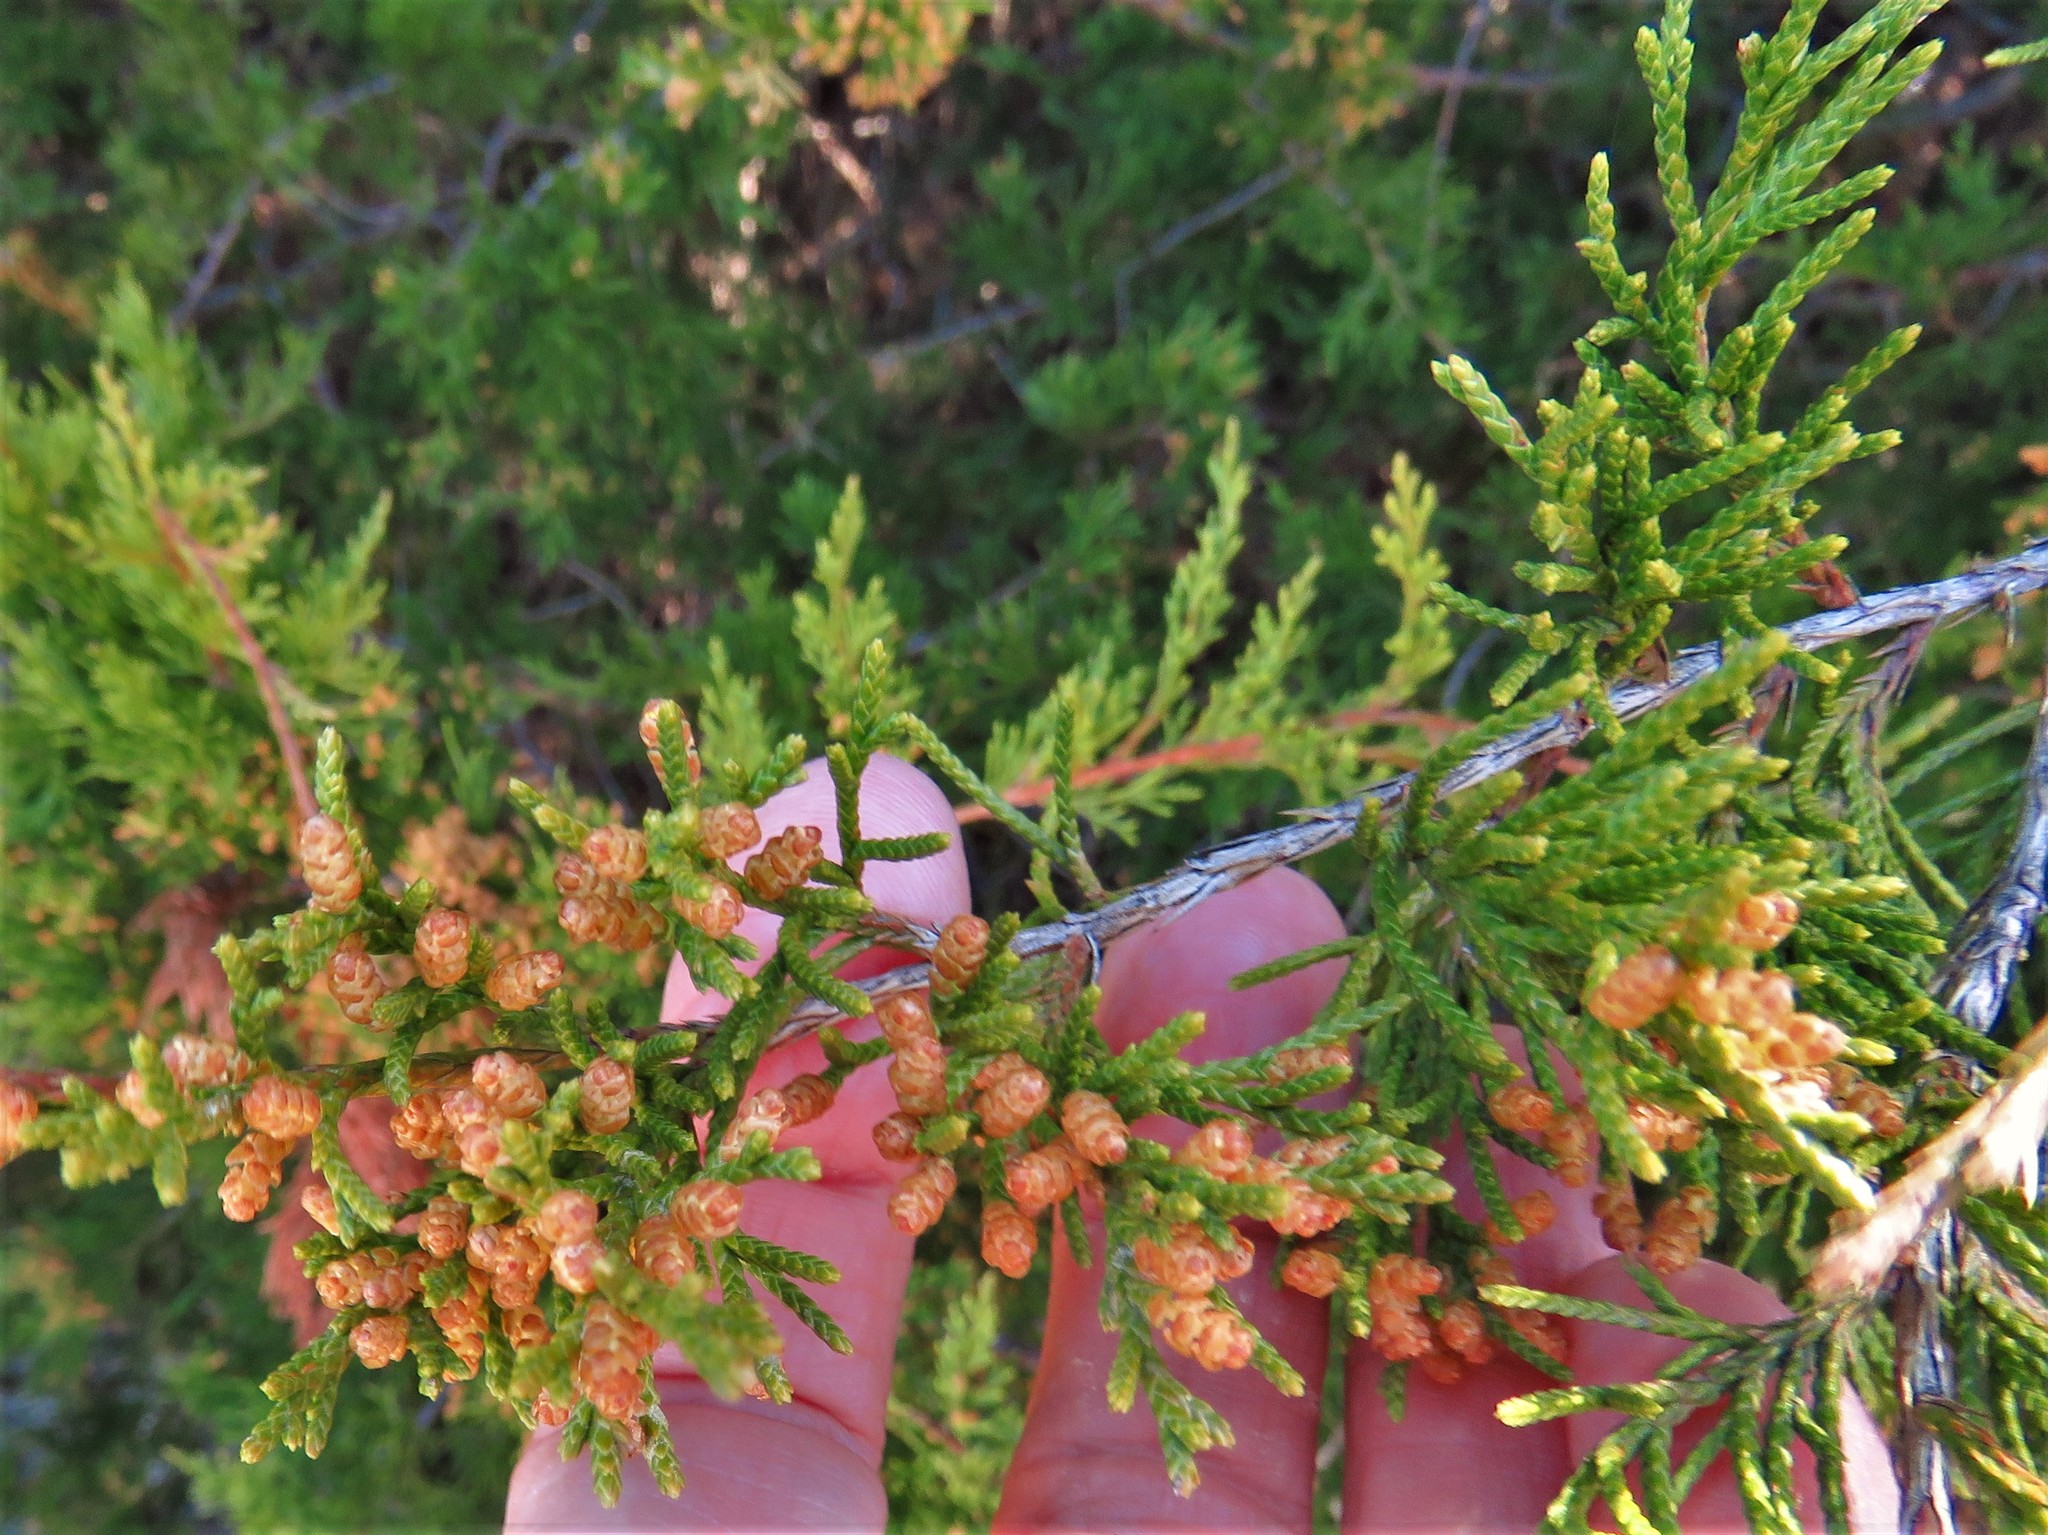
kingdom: Plantae
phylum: Tracheophyta
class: Pinopsida
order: Pinales
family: Cupressaceae
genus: Juniperus
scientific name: Juniperus virginiana
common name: Red juniper
